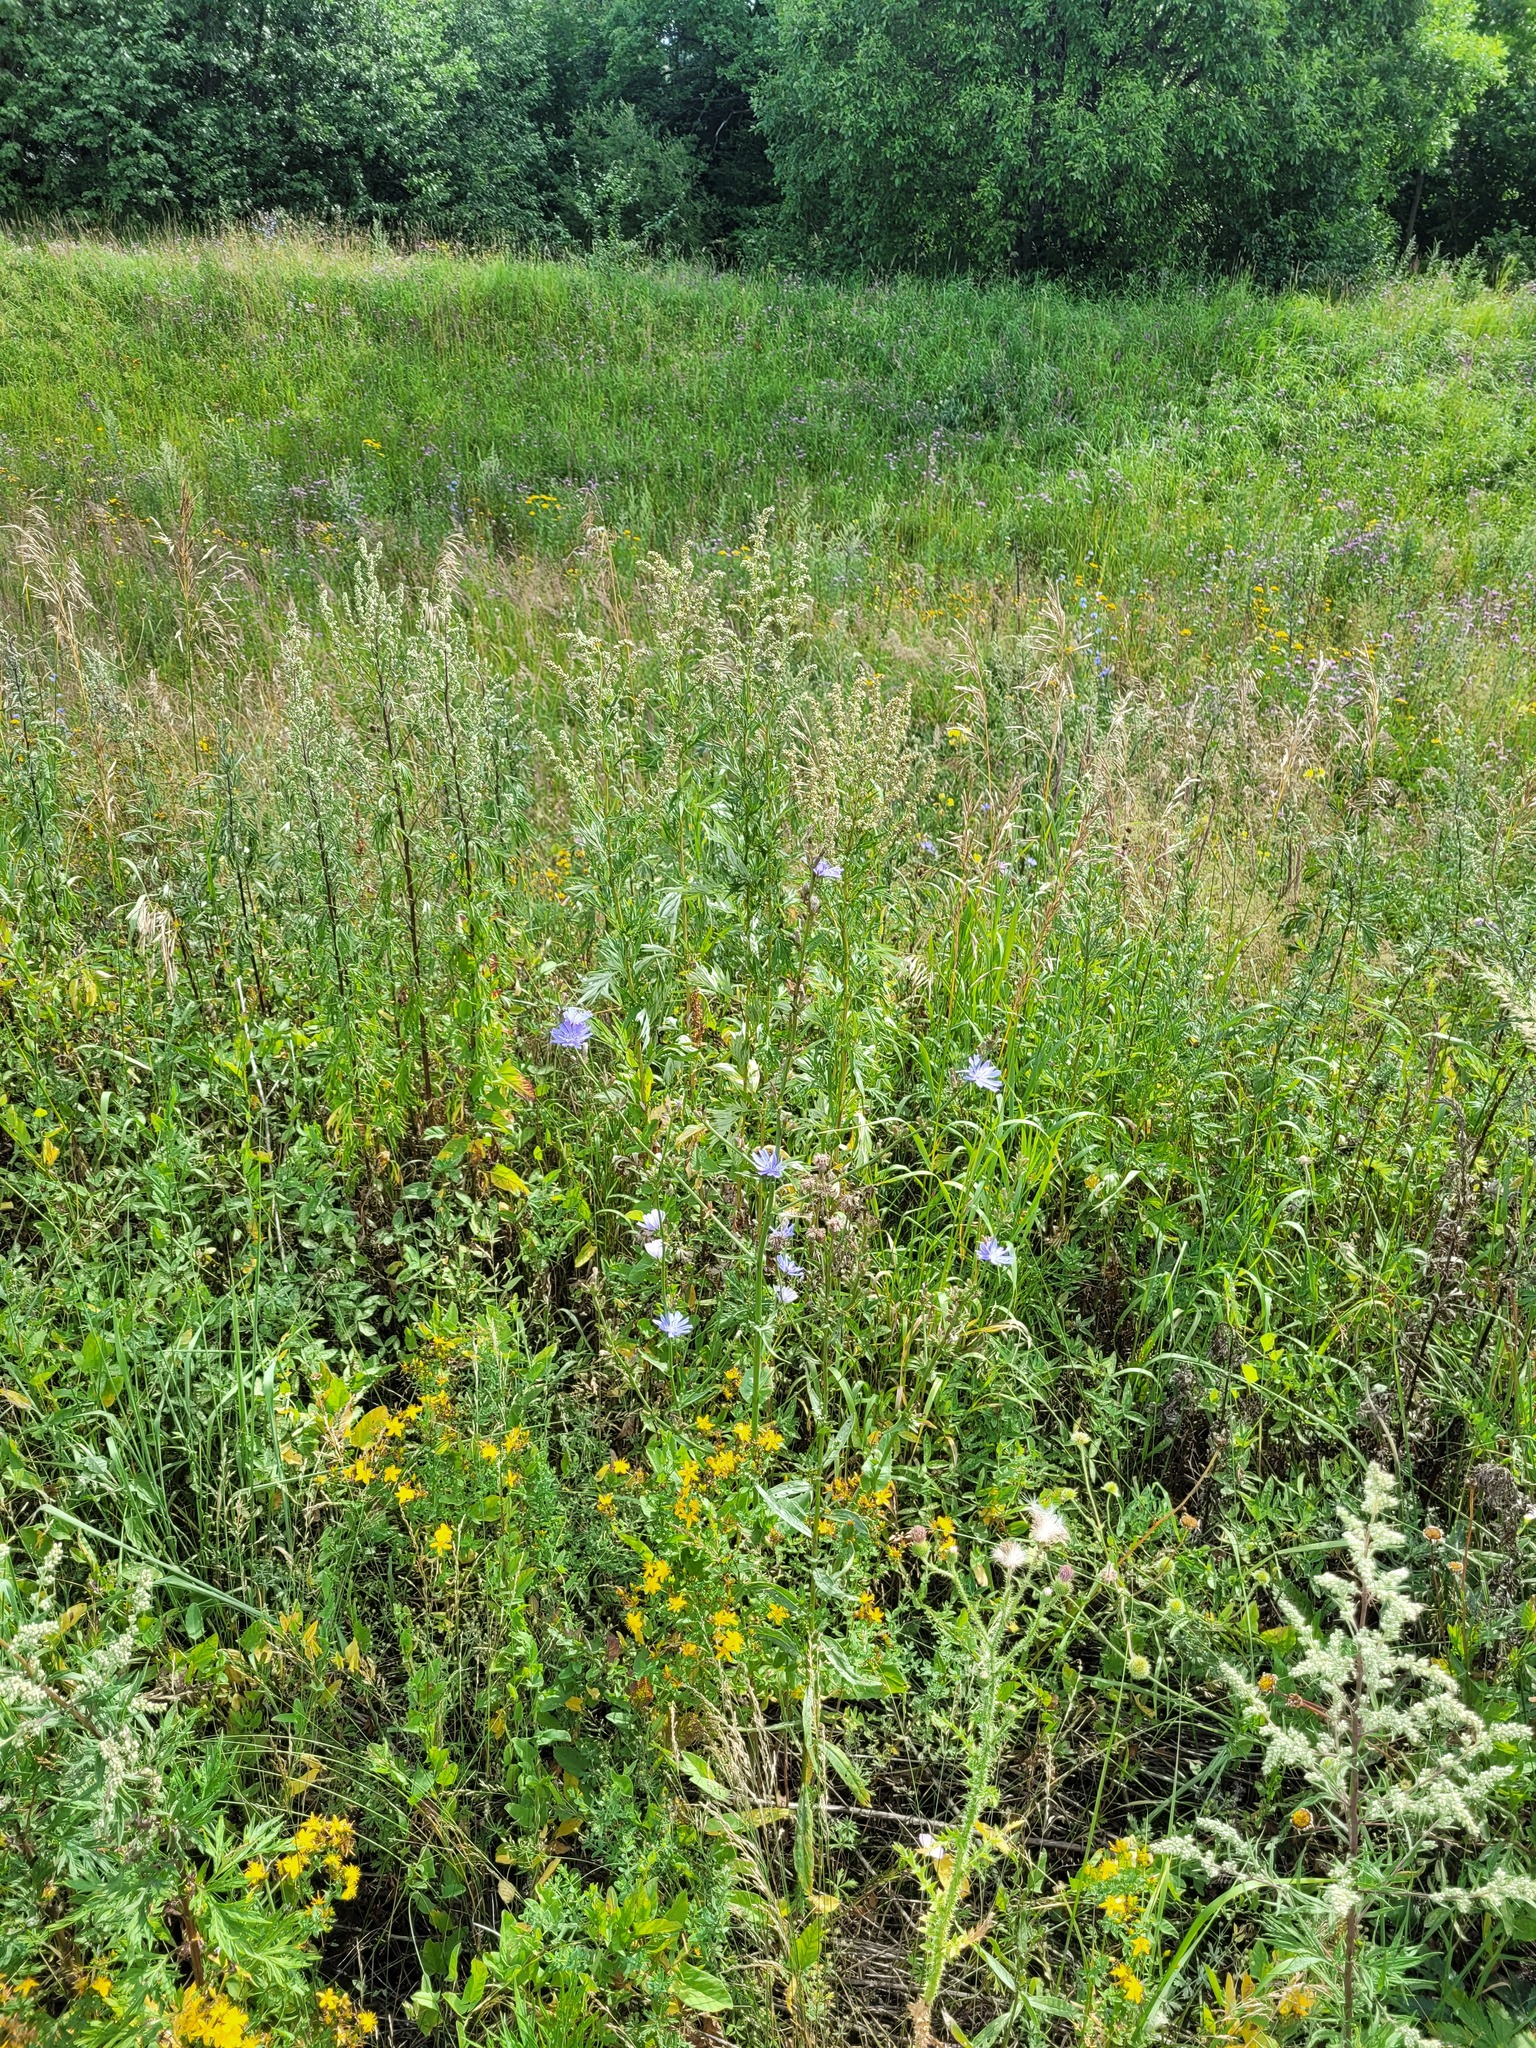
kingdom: Plantae
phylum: Tracheophyta
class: Magnoliopsida
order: Asterales
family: Asteraceae
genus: Cichorium
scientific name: Cichorium intybus
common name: Chicory
